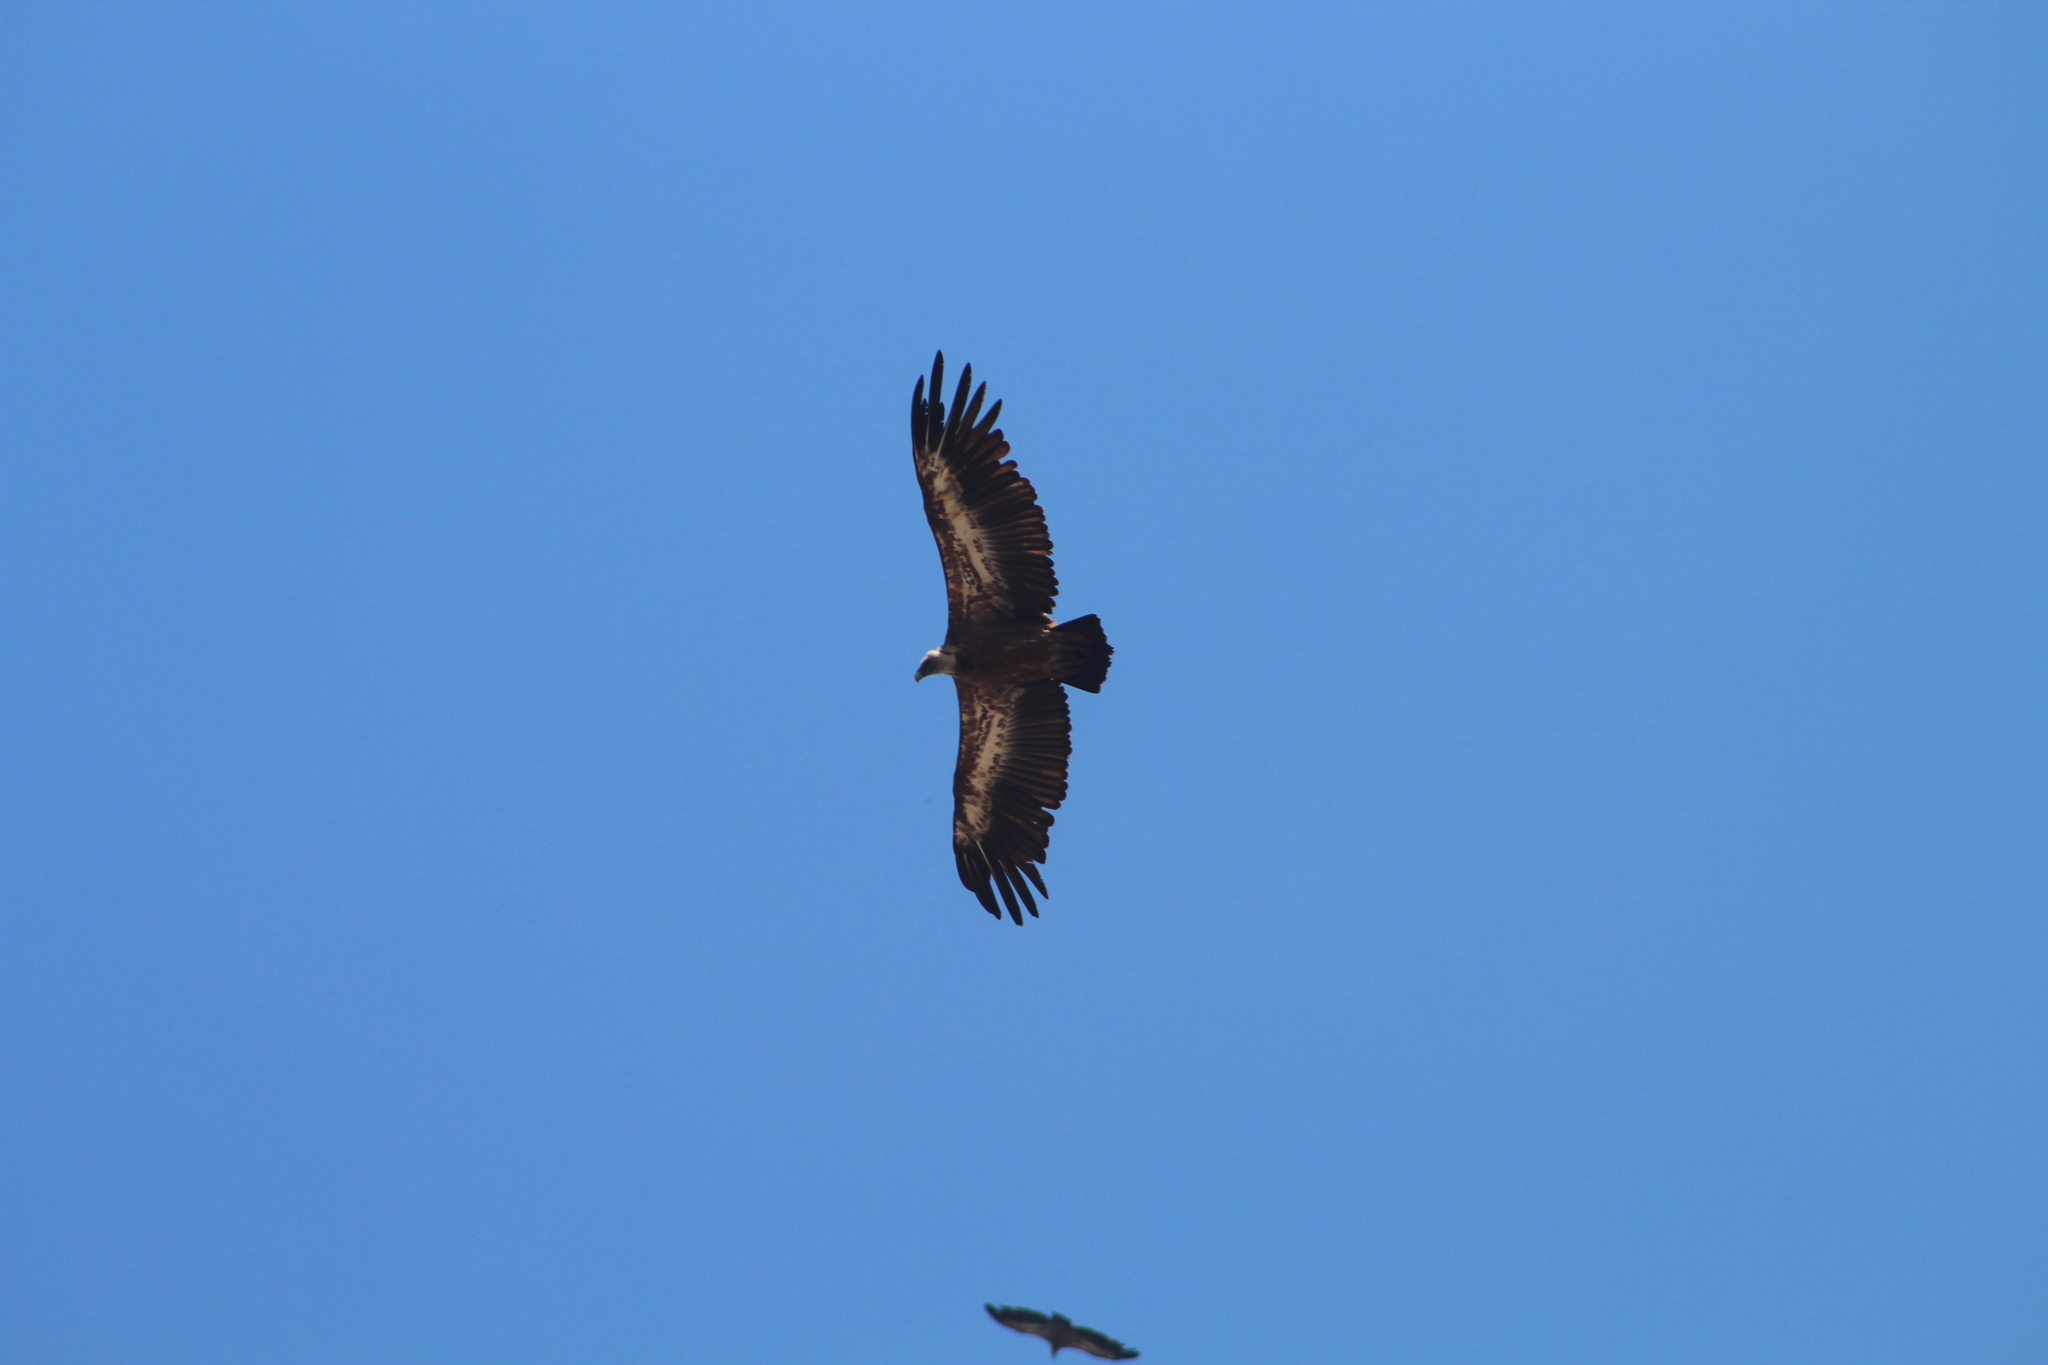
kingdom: Animalia
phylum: Chordata
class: Aves
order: Accipitriformes
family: Accipitridae
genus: Gyps
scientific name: Gyps fulvus
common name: Griffon vulture
